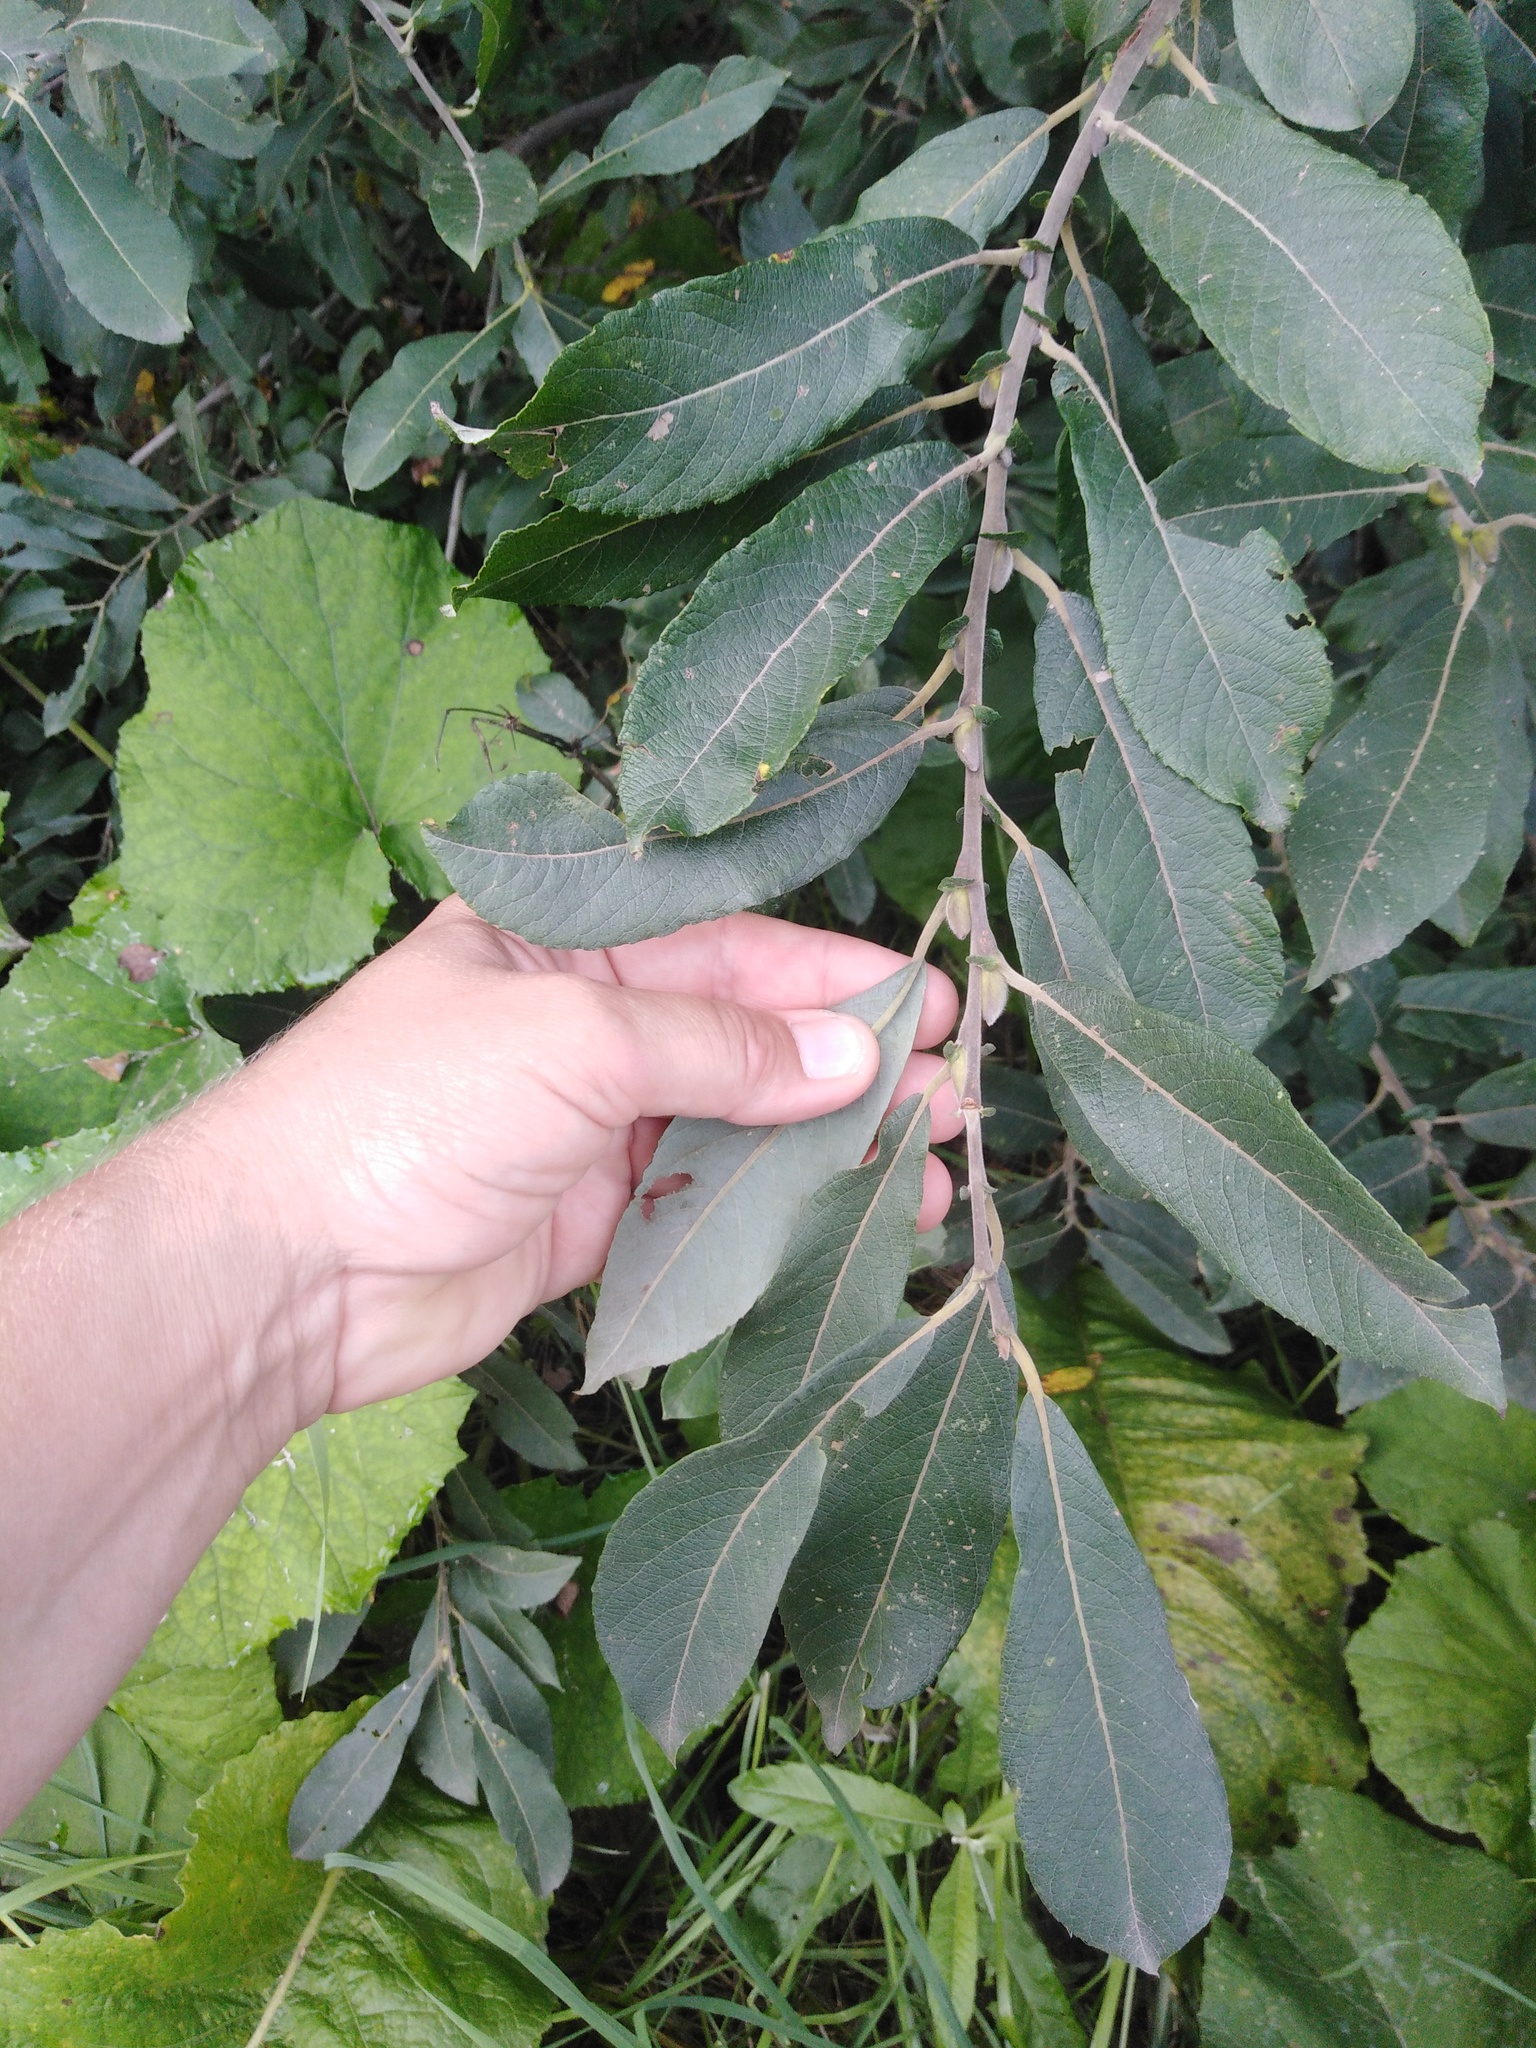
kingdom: Plantae
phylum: Tracheophyta
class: Magnoliopsida
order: Malpighiales
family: Salicaceae
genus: Salix
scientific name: Salix cinerea
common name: Common sallow
